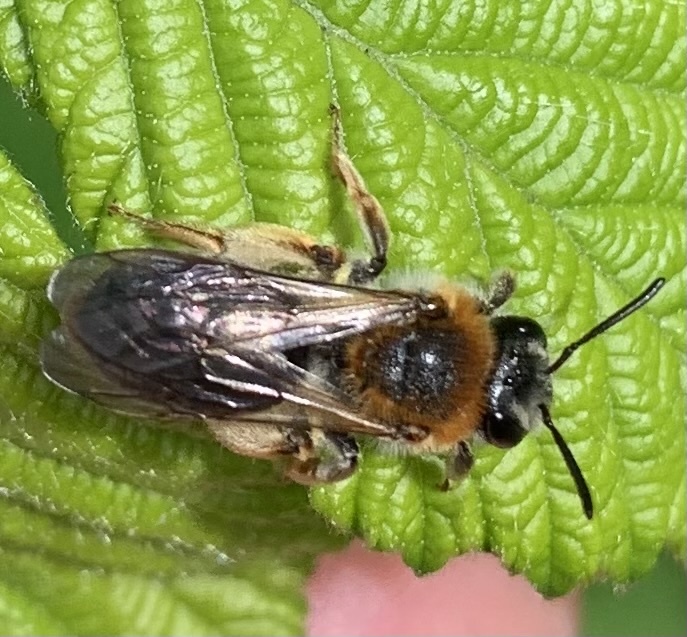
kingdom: Animalia
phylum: Arthropoda
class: Insecta
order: Hymenoptera
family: Andrenidae
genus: Andrena
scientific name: Andrena haemorrhoa
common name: Early mining bee
